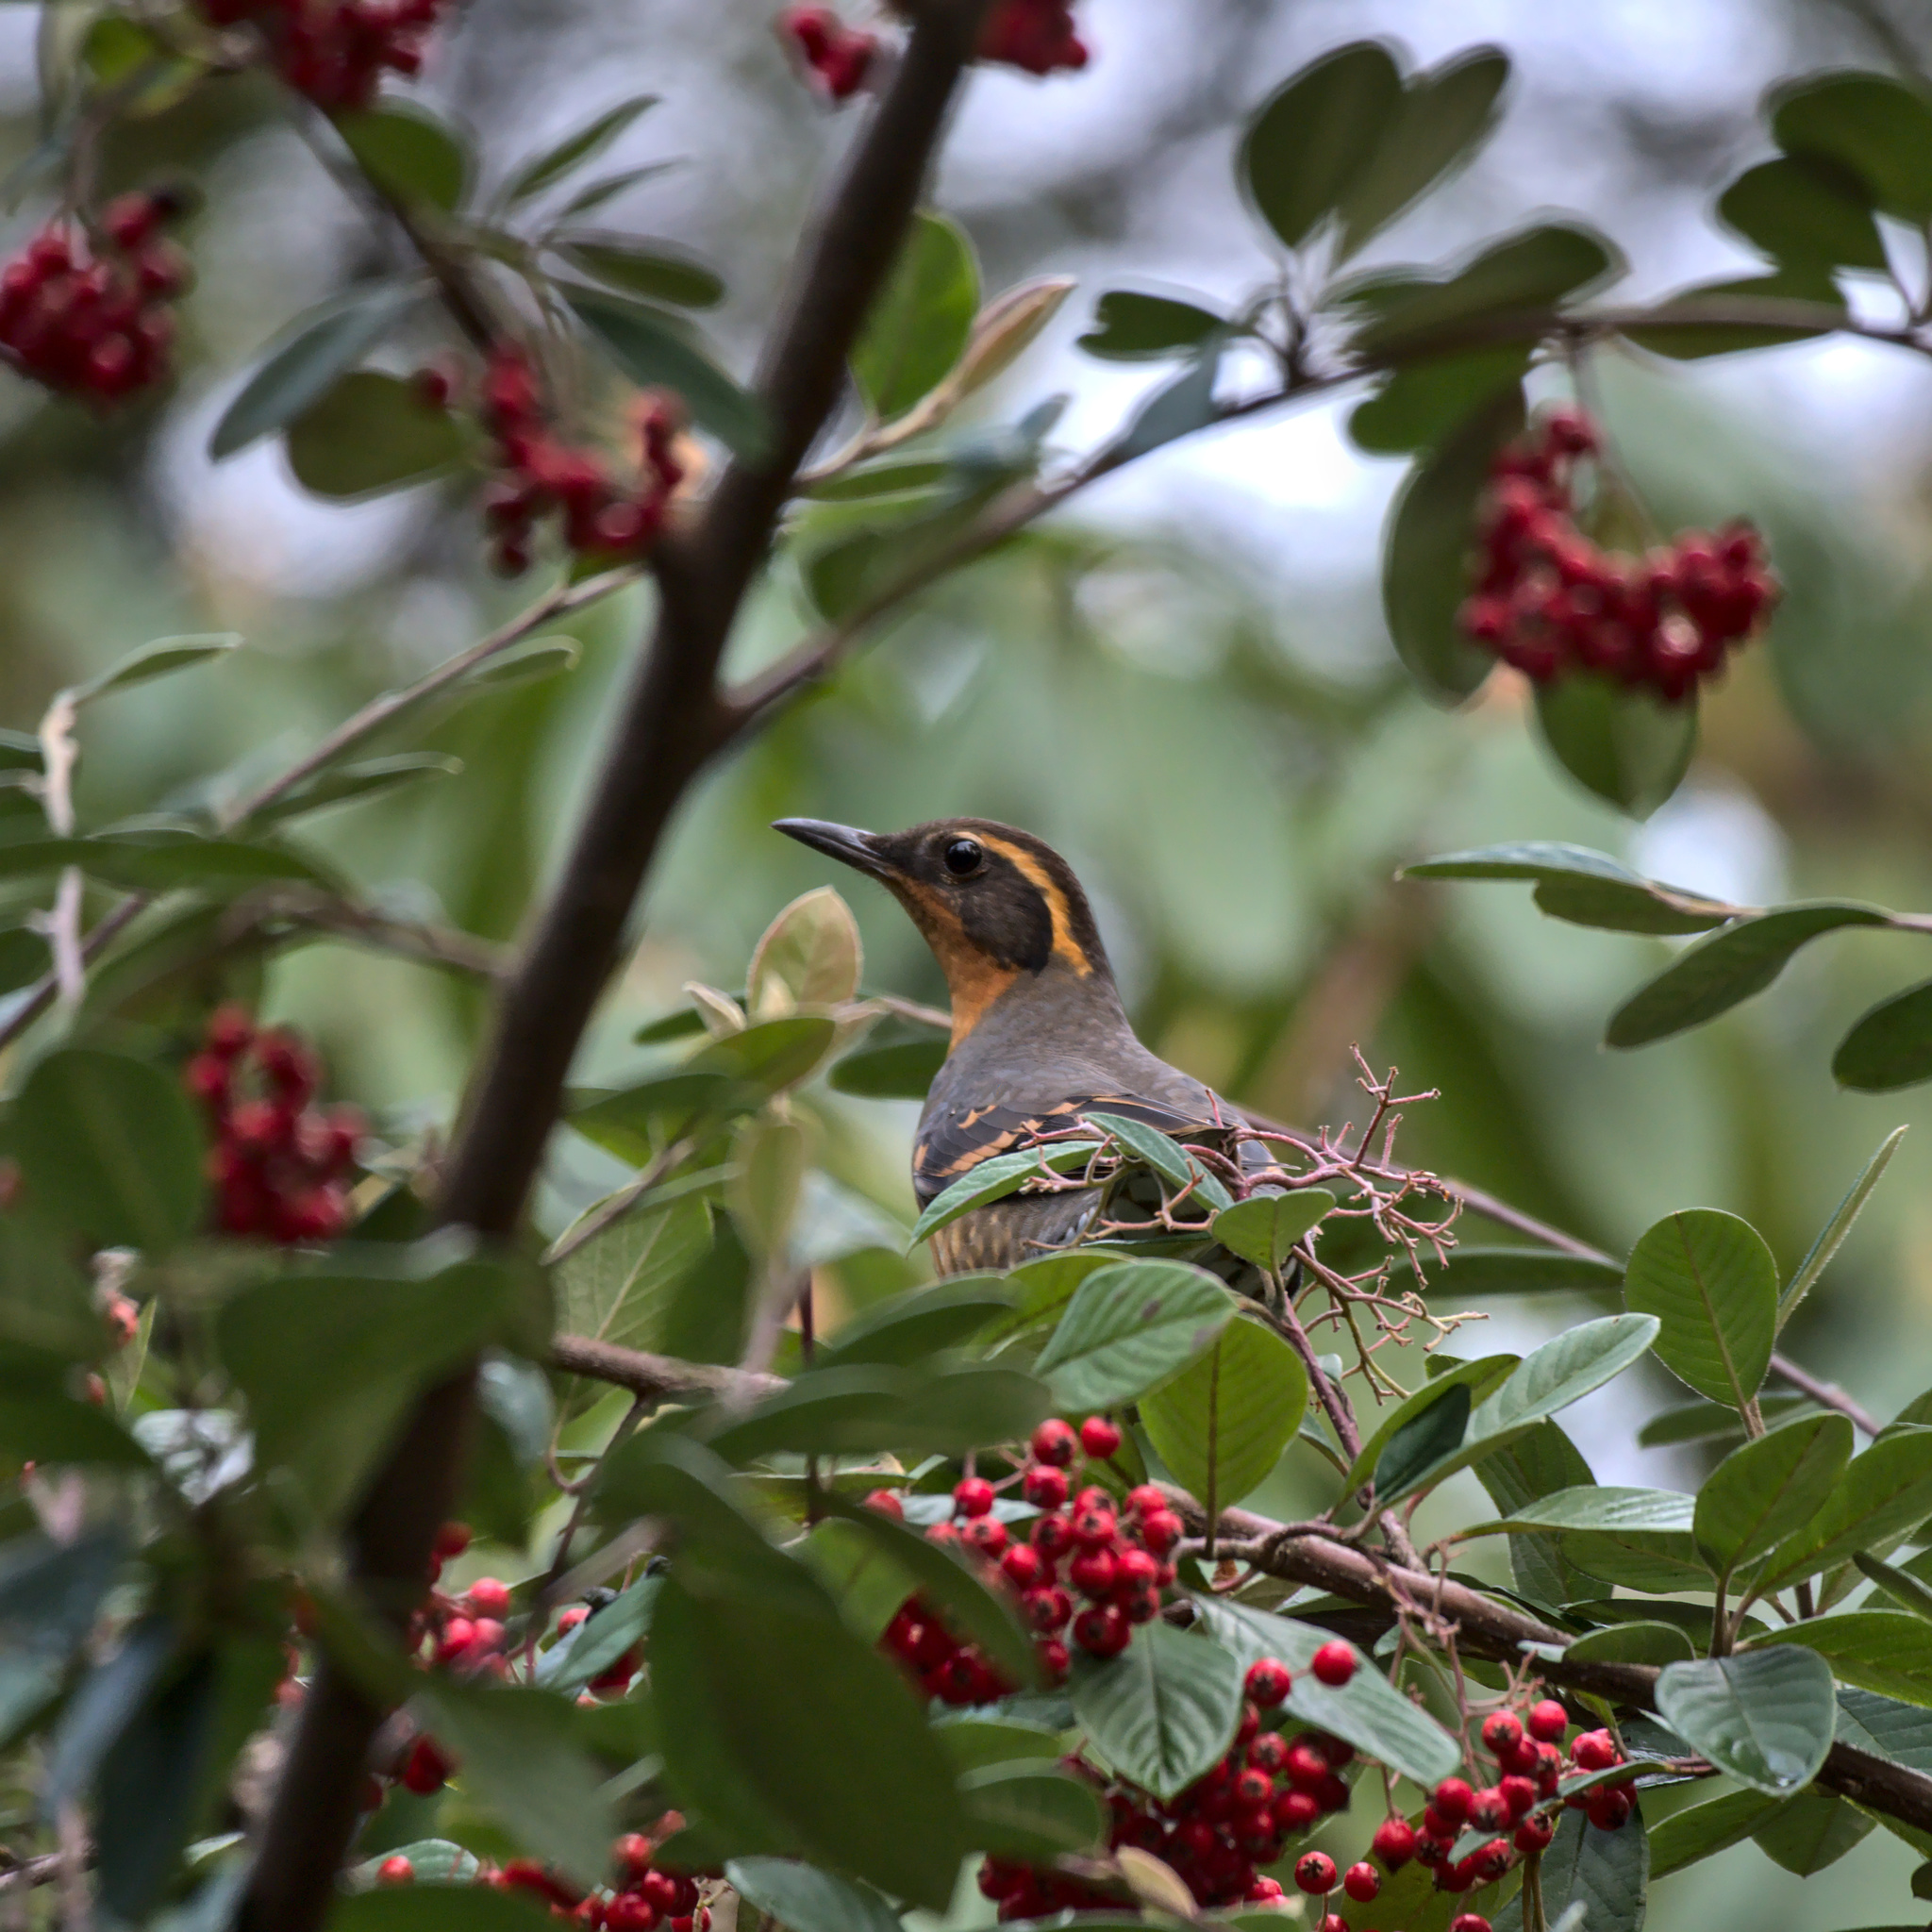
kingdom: Animalia
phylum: Chordata
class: Aves
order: Passeriformes
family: Turdidae
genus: Ixoreus
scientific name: Ixoreus naevius
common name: Varied thrush
